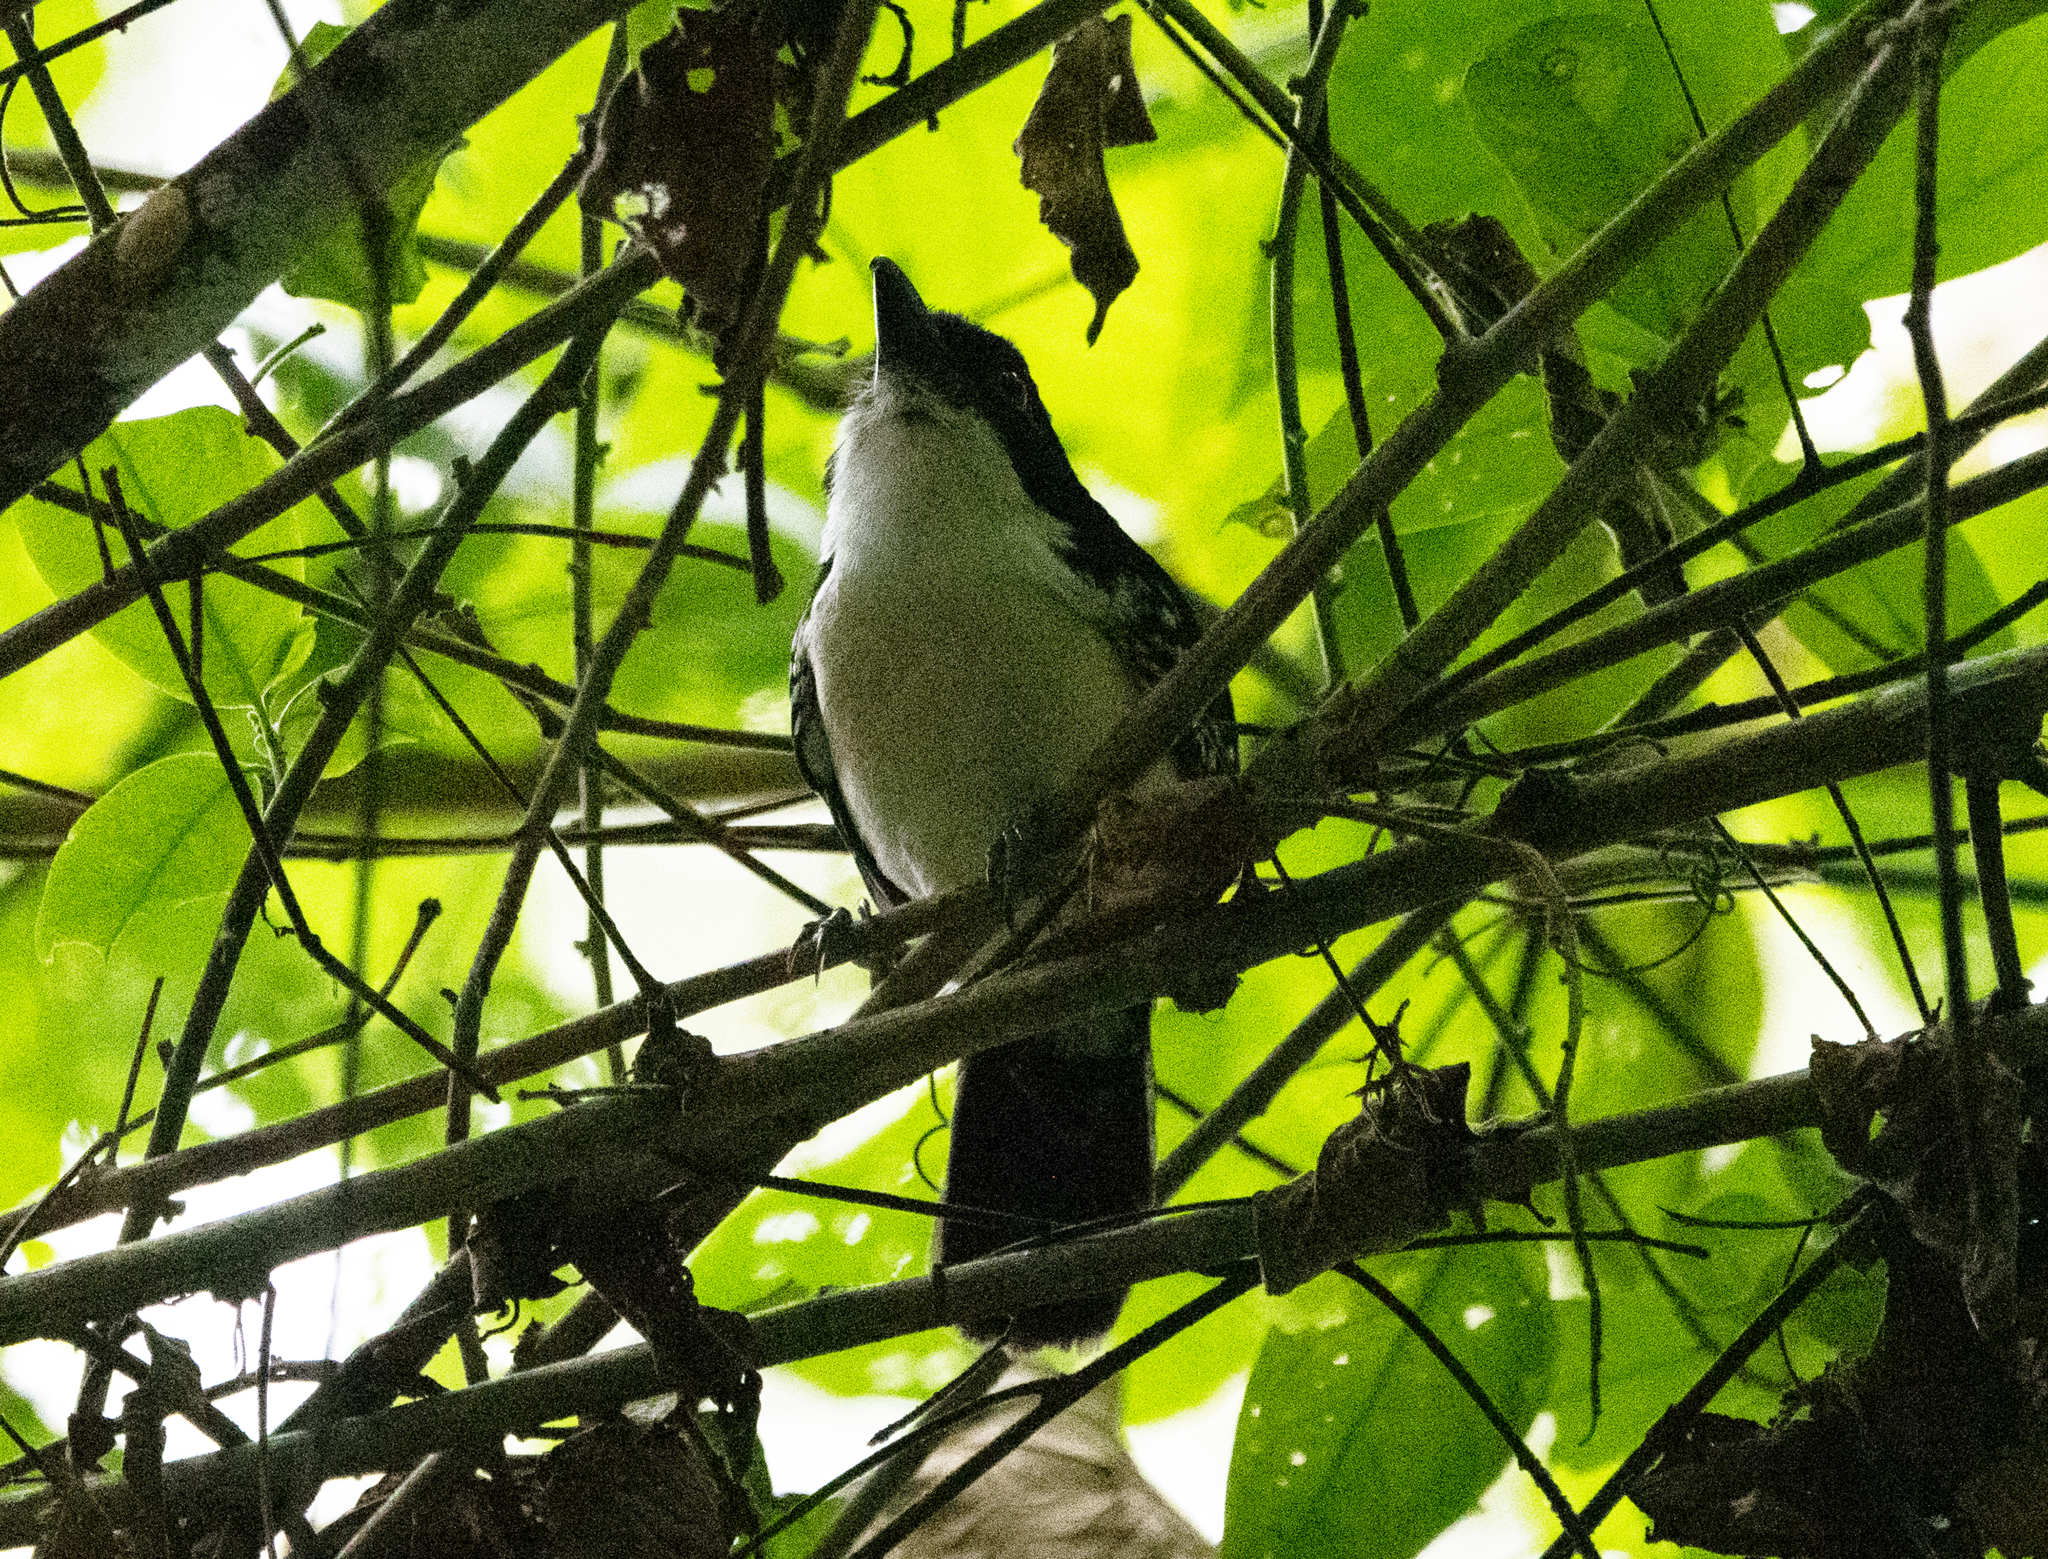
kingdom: Animalia
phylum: Chordata
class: Aves
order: Passeriformes
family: Thamnophilidae
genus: Taraba
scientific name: Taraba major
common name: Great antshrike
